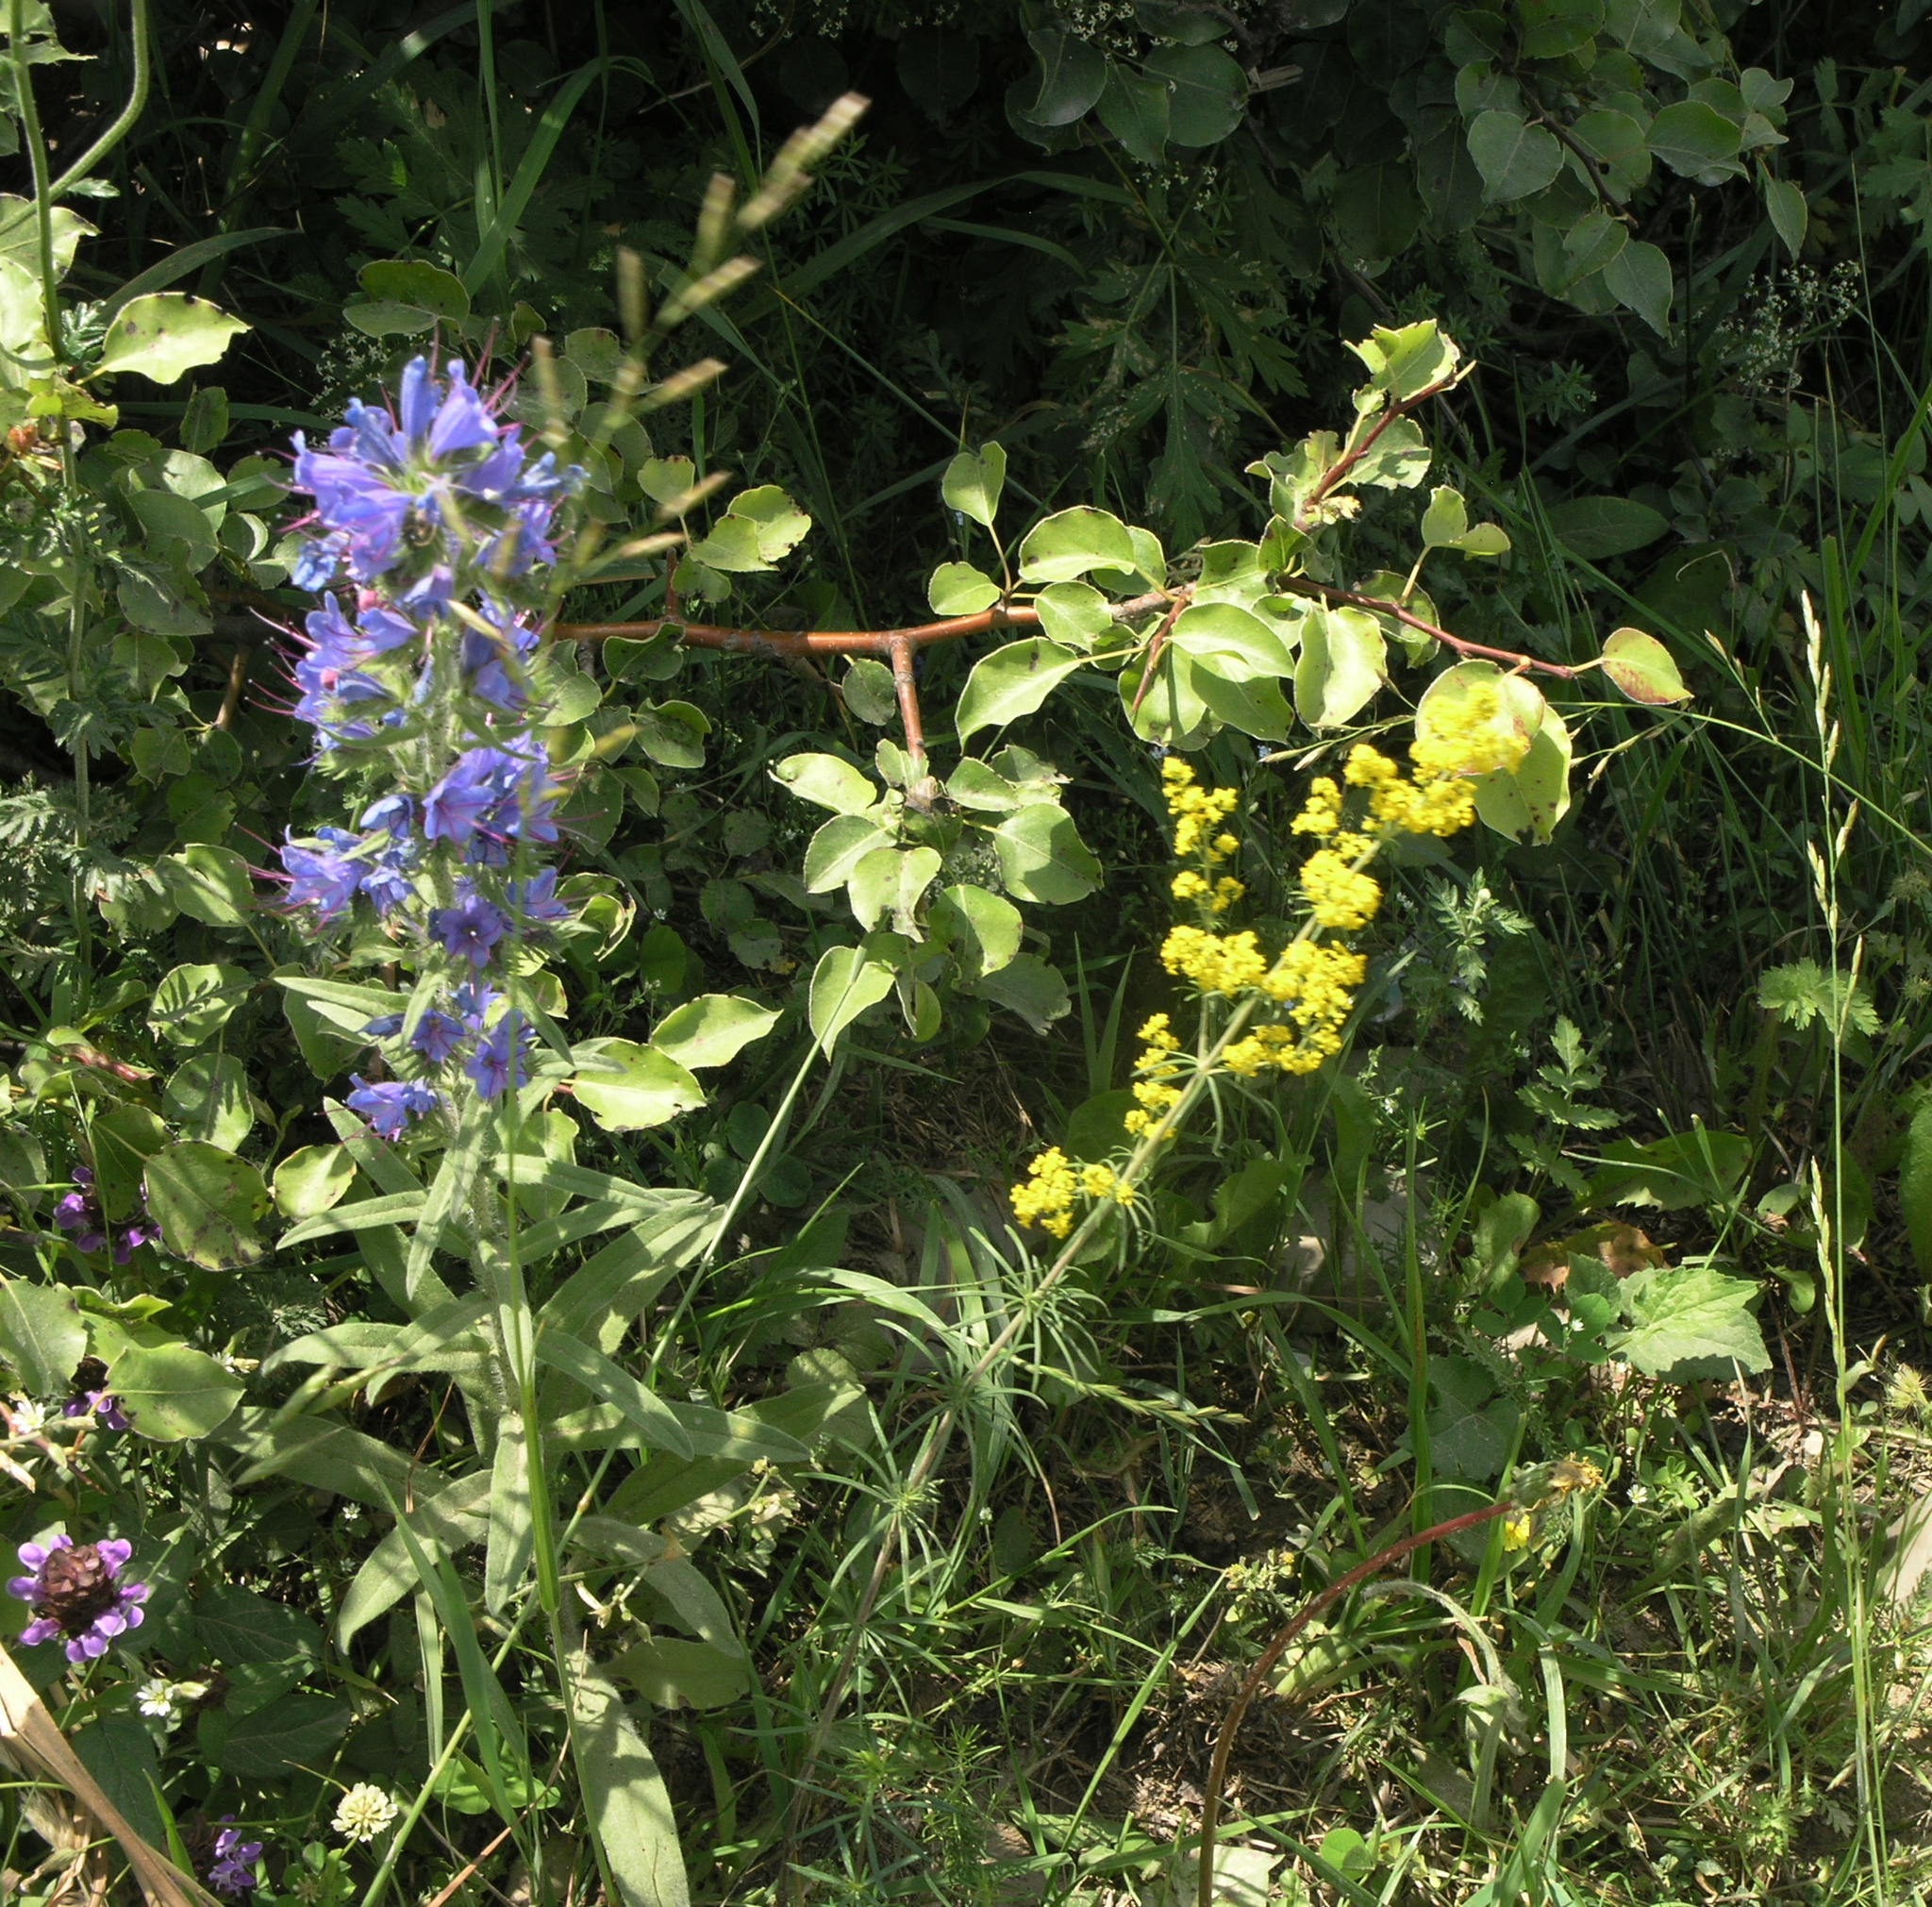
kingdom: Plantae
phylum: Tracheophyta
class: Magnoliopsida
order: Boraginales
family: Boraginaceae
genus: Echium
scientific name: Echium vulgare
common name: Common viper's bugloss
